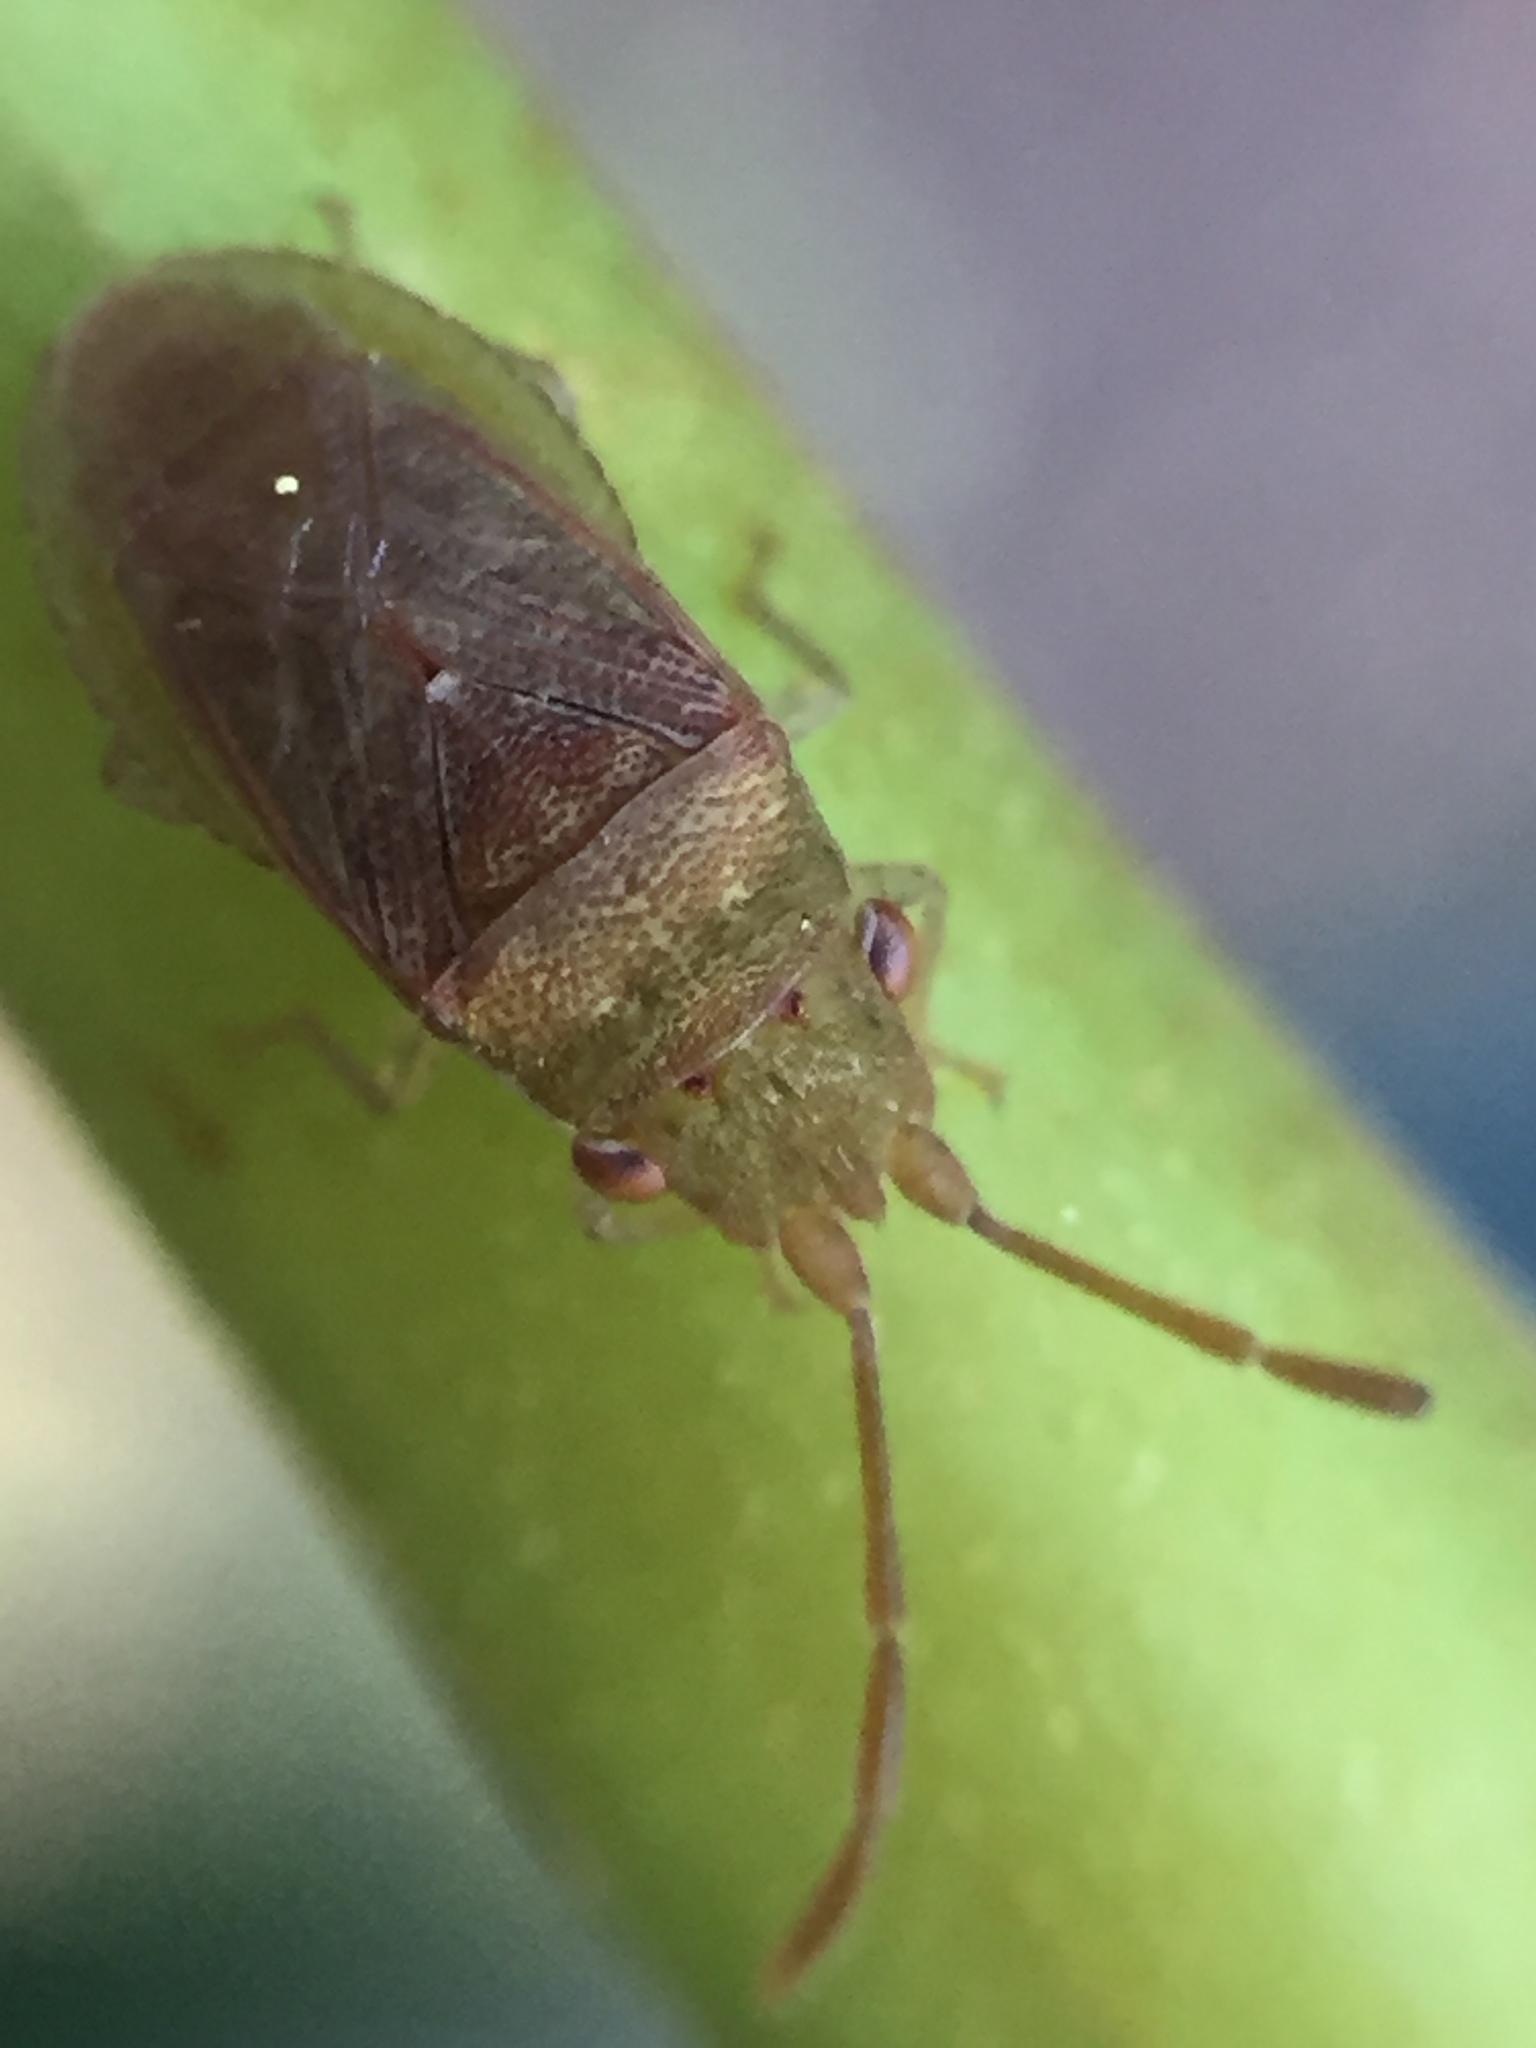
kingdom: Animalia
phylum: Arthropoda
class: Insecta
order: Hemiptera
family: Meschiidae
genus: Meschia
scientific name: Meschia barrowensis
